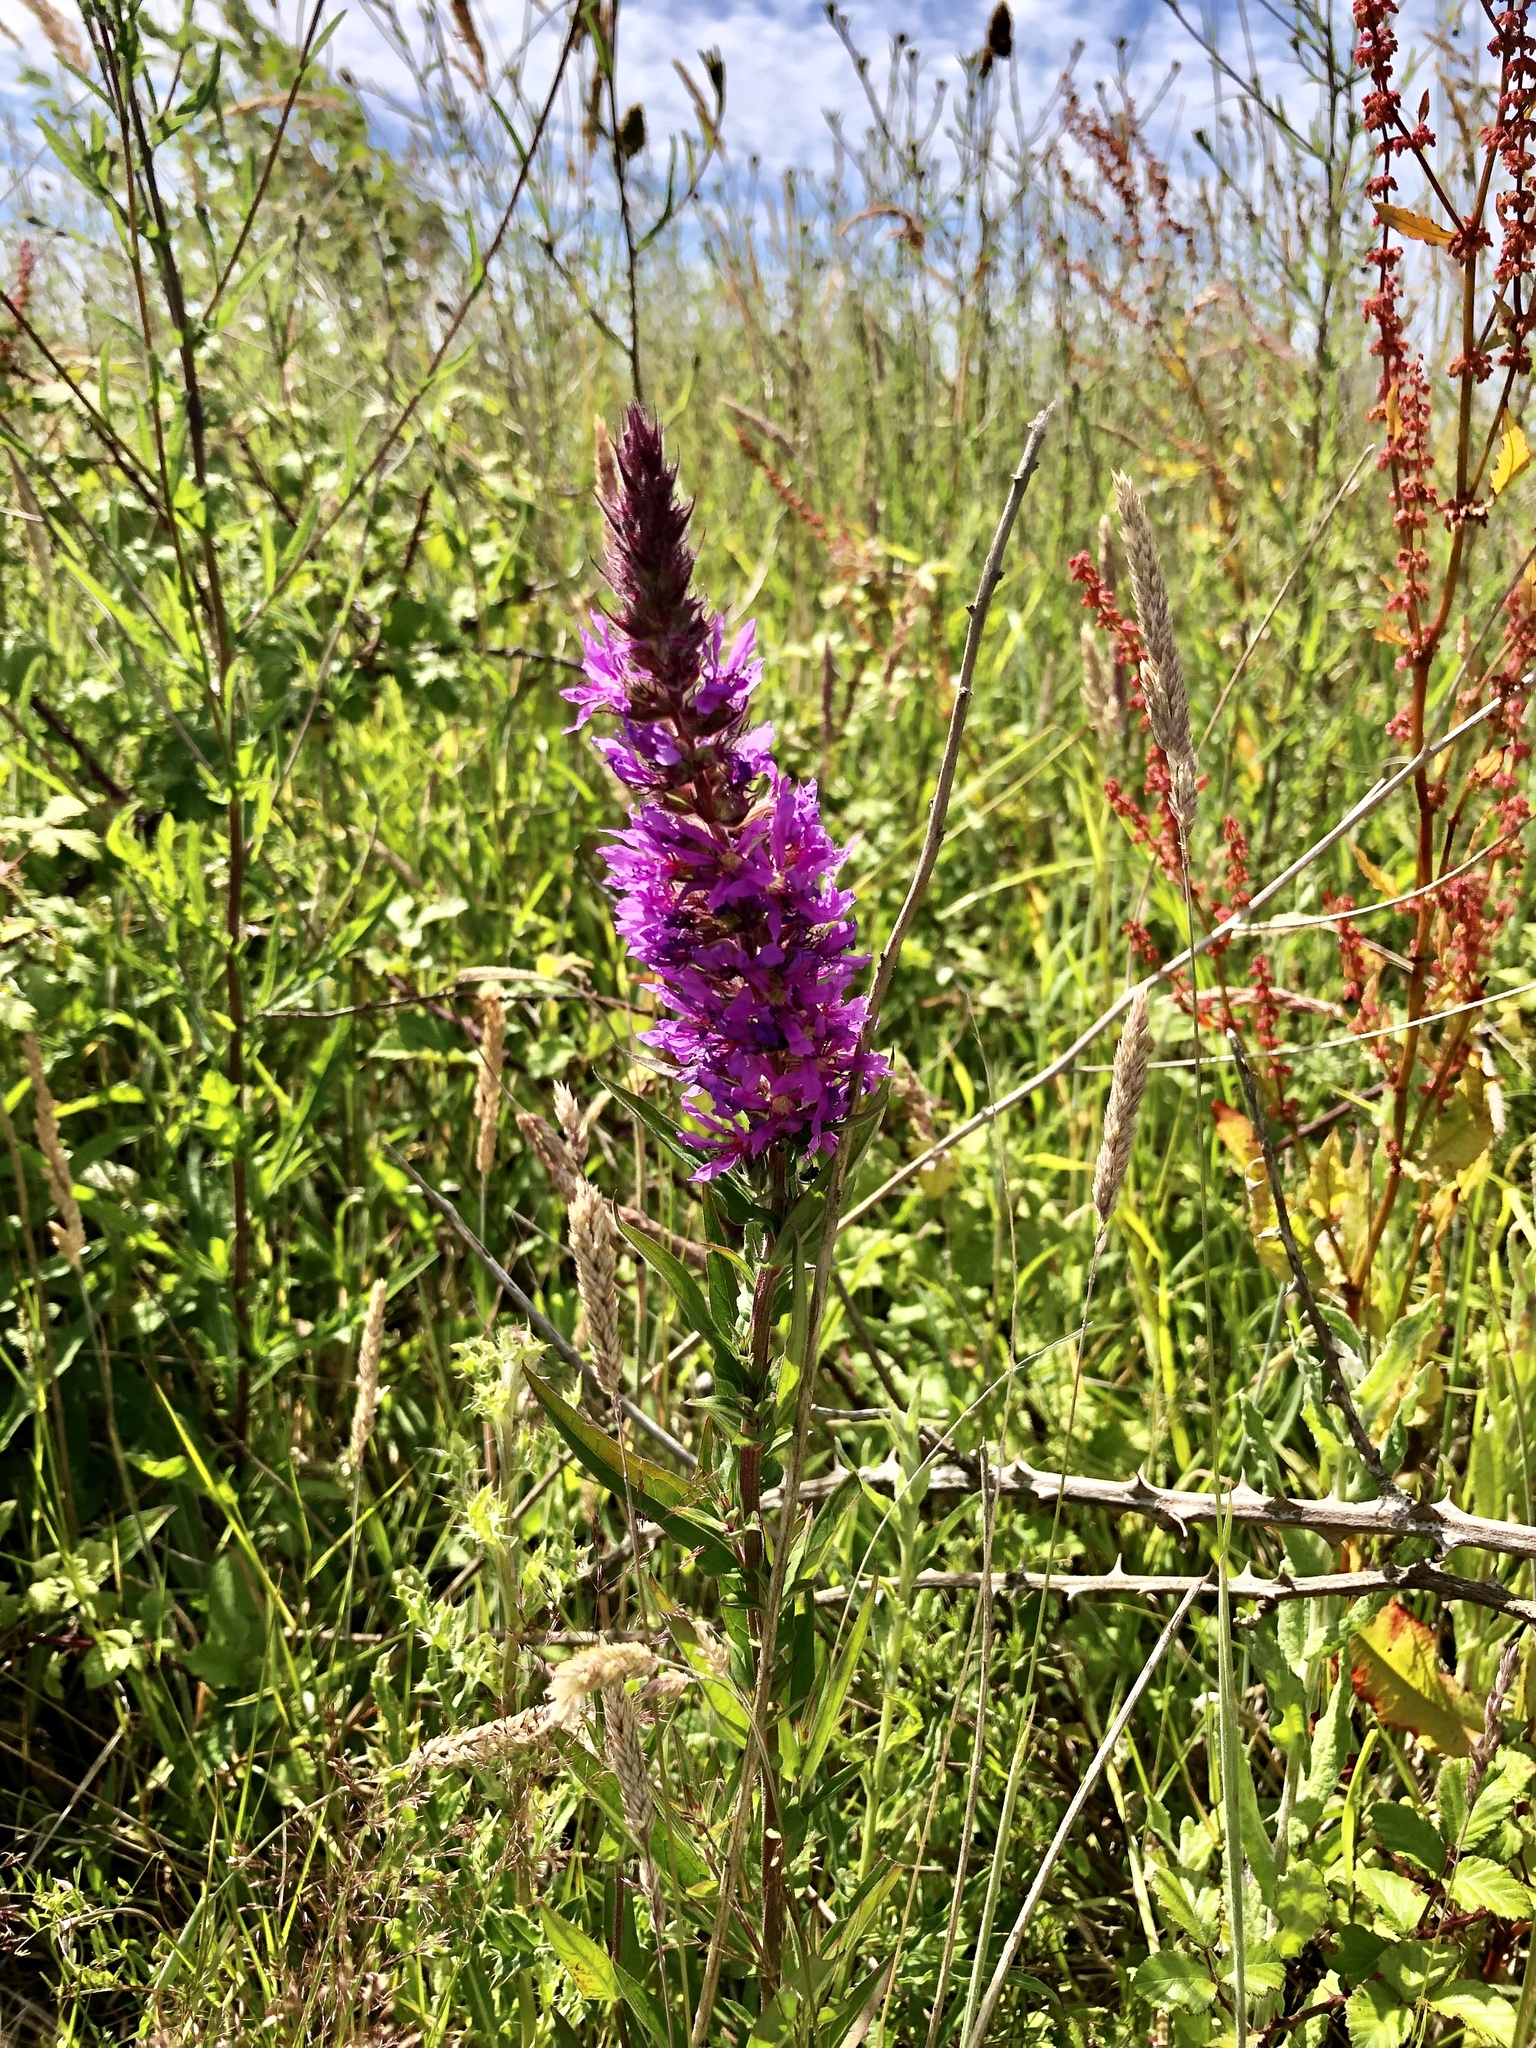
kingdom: Plantae
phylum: Tracheophyta
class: Magnoliopsida
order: Myrtales
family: Lythraceae
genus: Lythrum
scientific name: Lythrum salicaria
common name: Purple loosestrife
